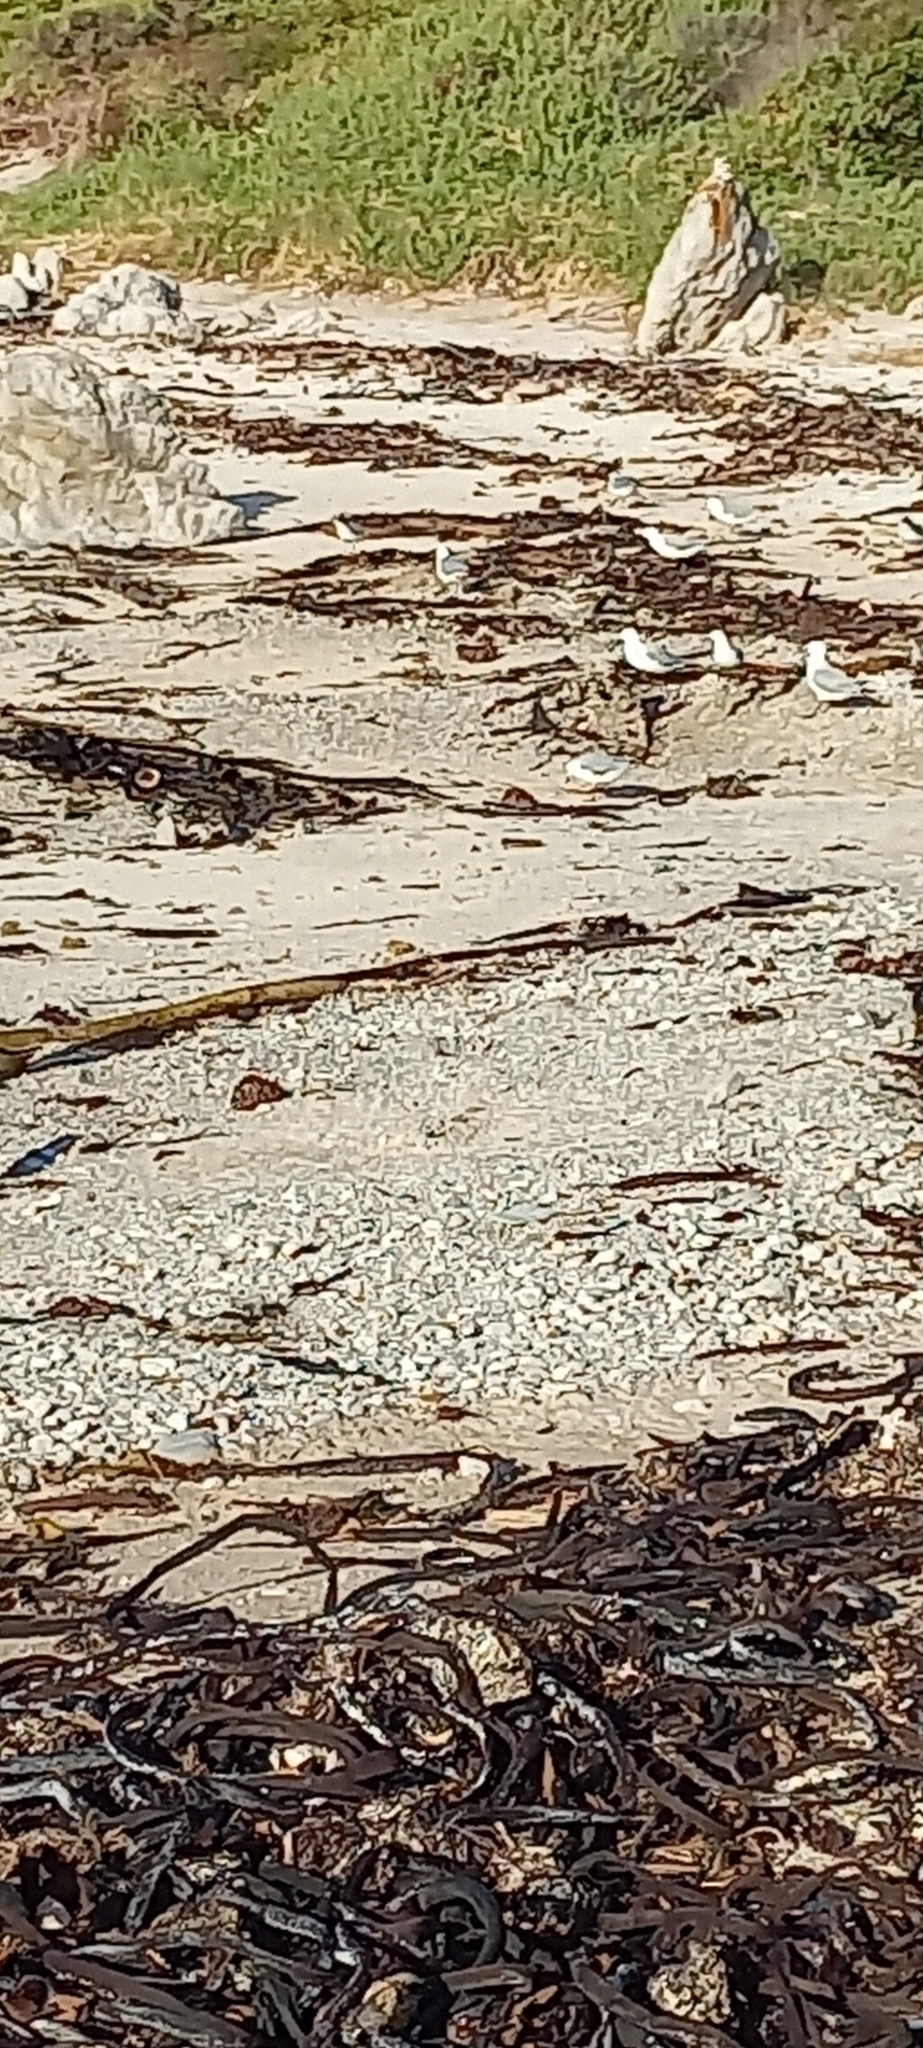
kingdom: Animalia
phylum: Chordata
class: Aves
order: Charadriiformes
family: Laridae
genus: Chroicocephalus
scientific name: Chroicocephalus hartlaubii
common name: Hartlaub's gull
